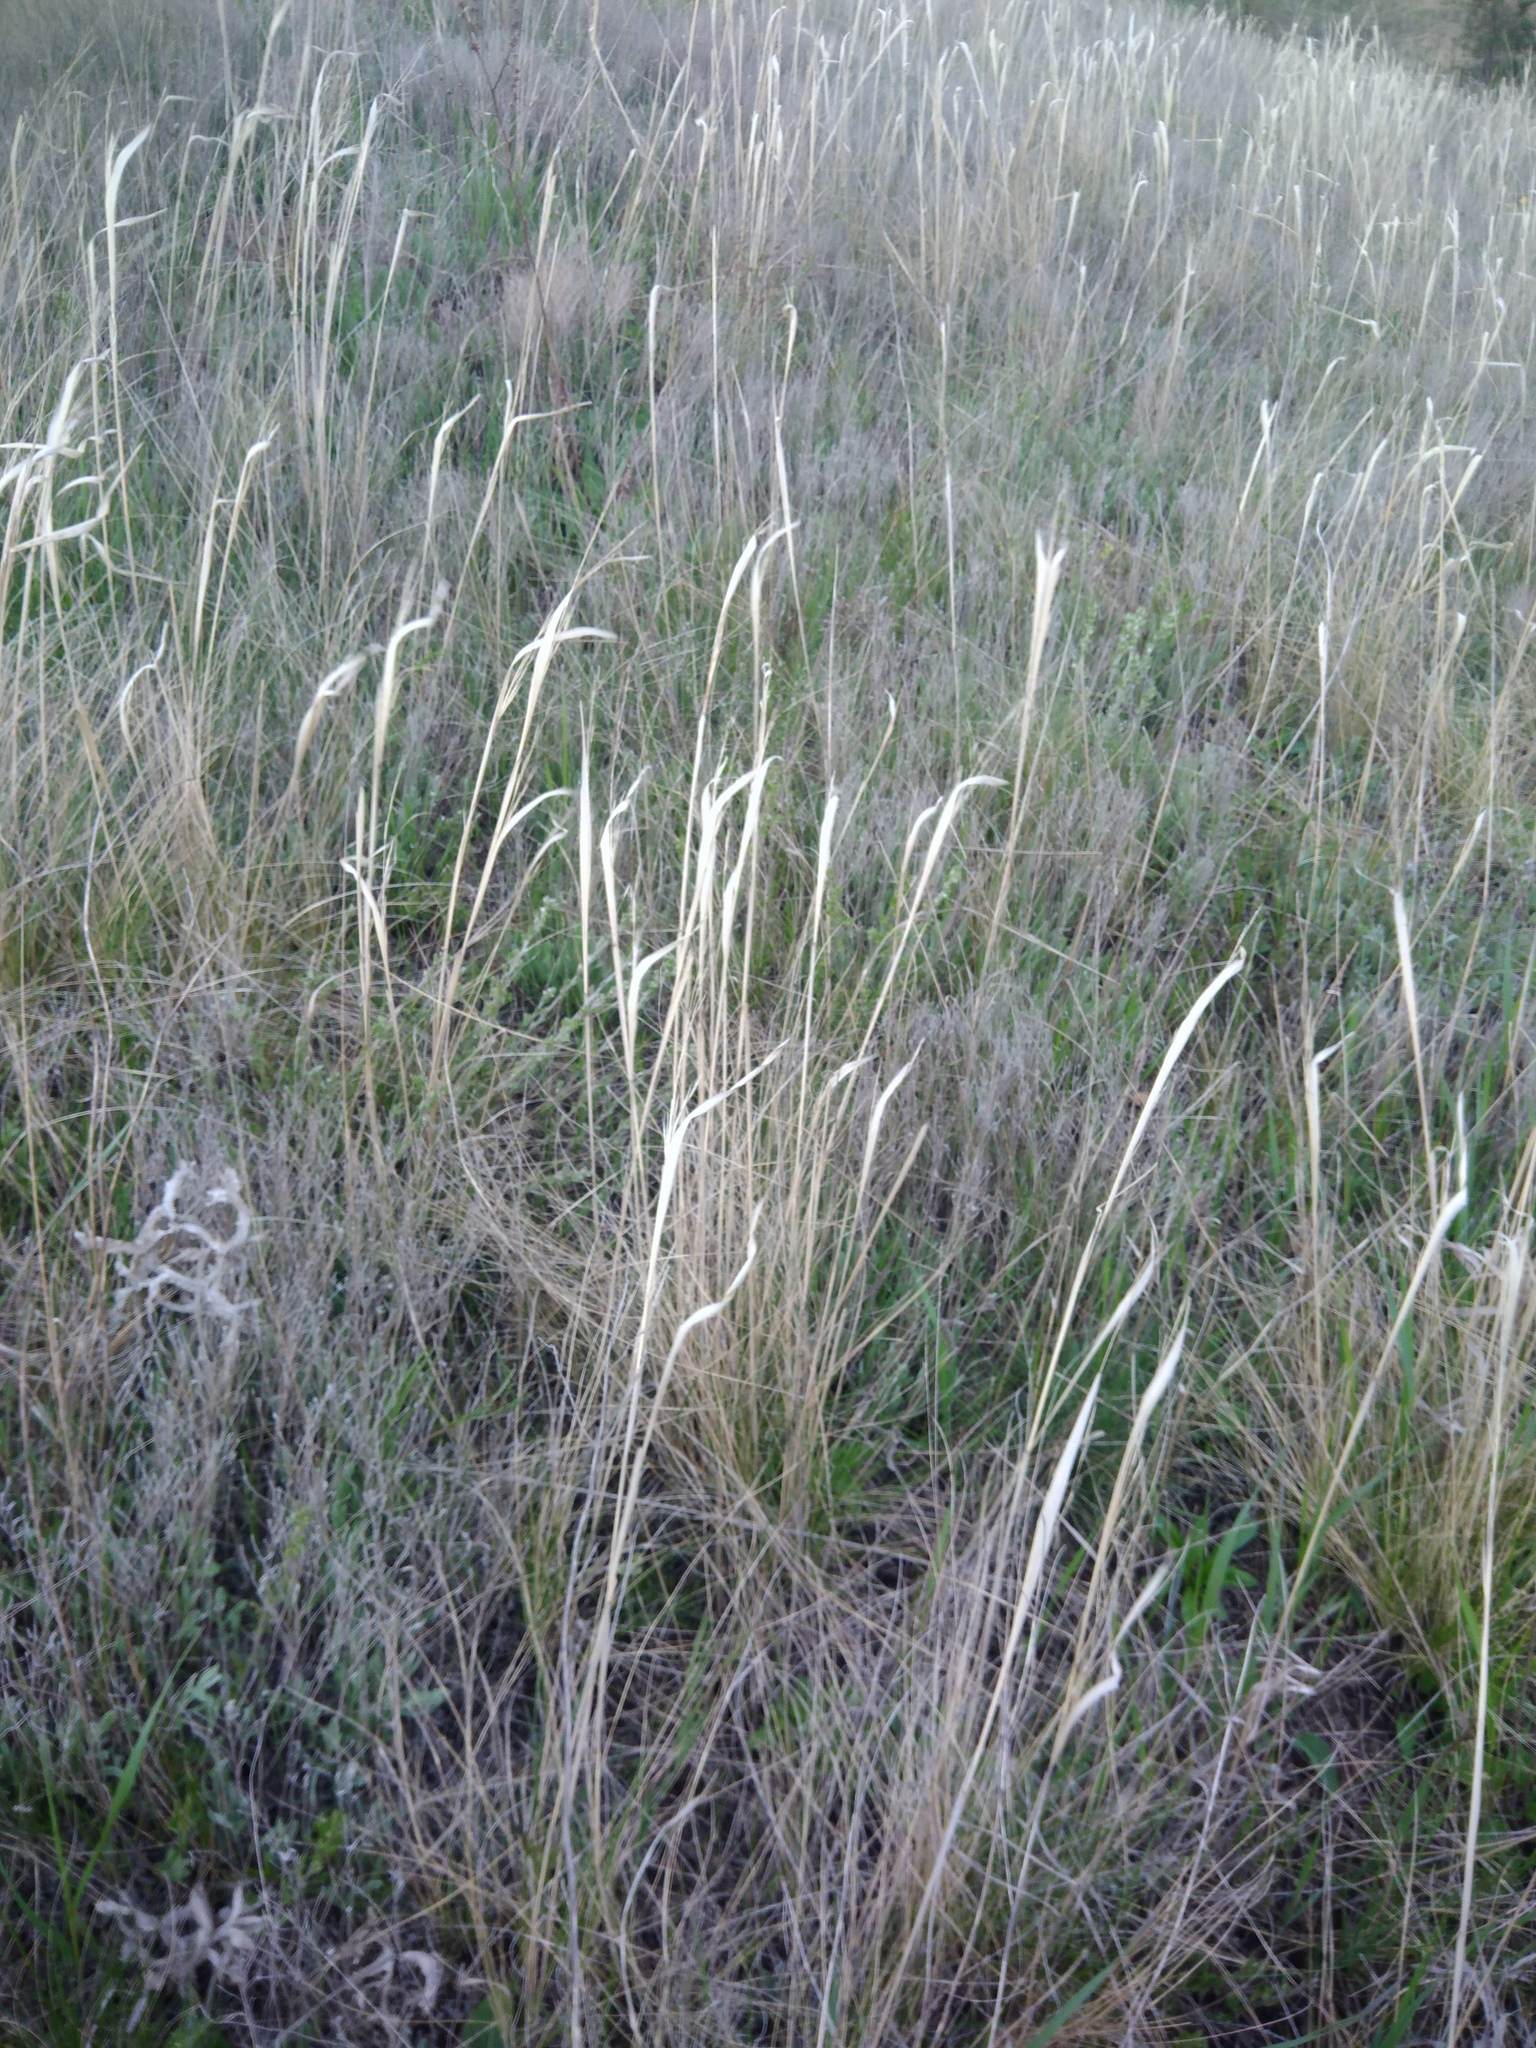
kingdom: Plantae
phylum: Tracheophyta
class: Liliopsida
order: Poales
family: Poaceae
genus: Stipa
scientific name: Stipa capillata
